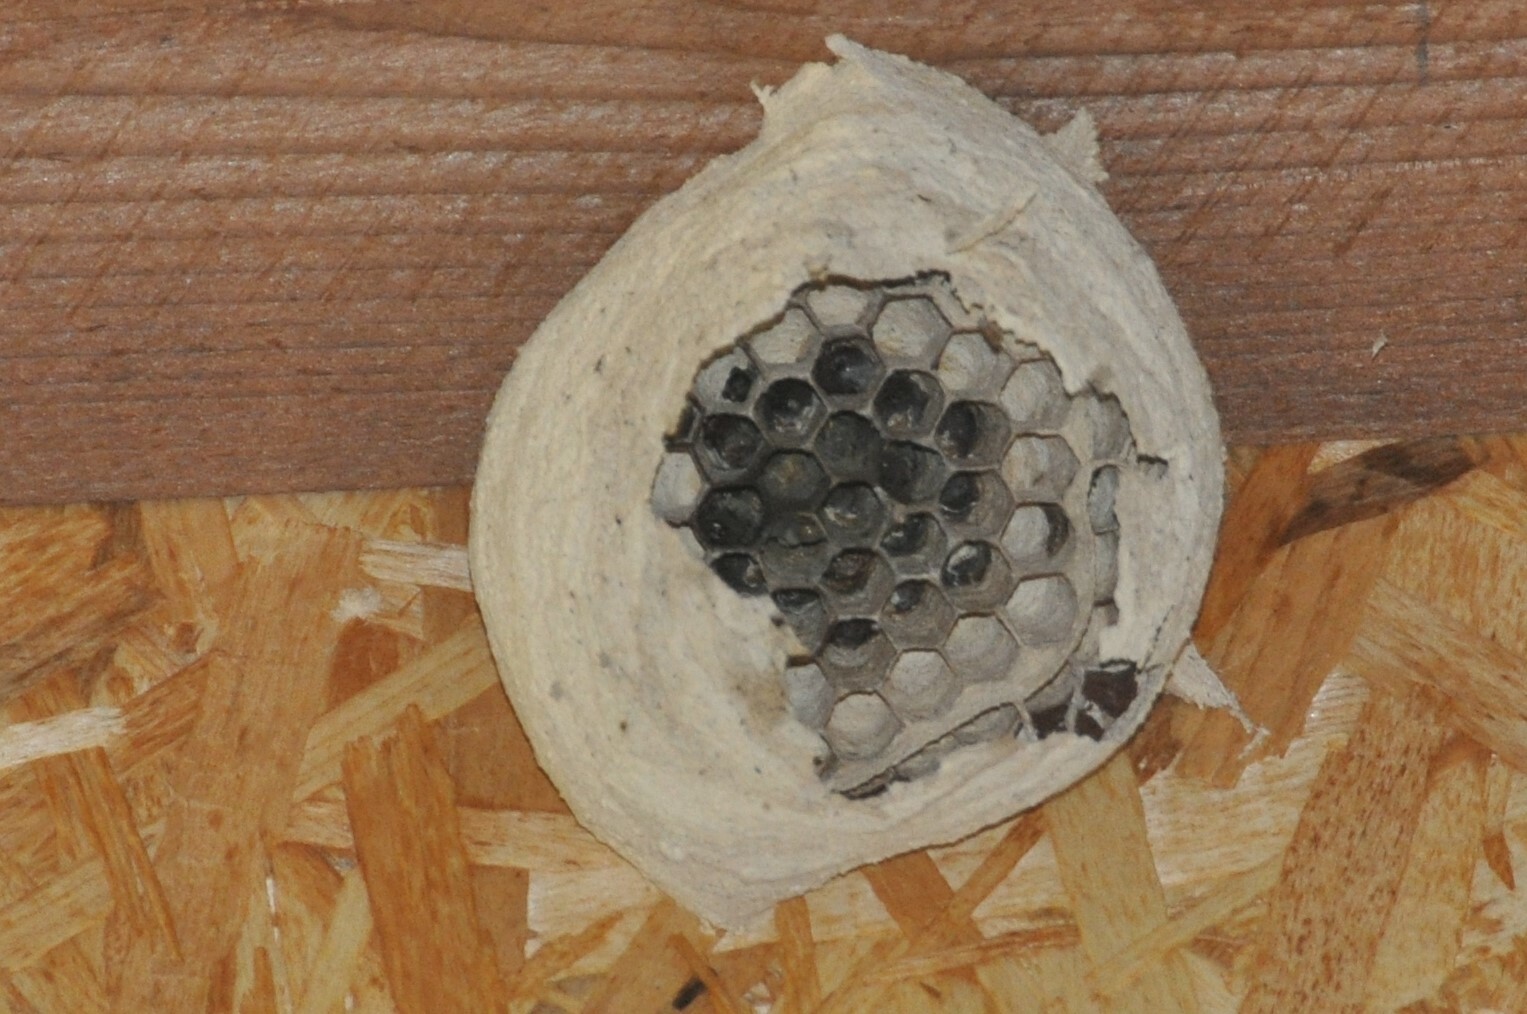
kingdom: Animalia
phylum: Arthropoda
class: Insecta
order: Hymenoptera
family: Vespidae
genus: Vespa
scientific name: Vespa crabro
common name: Hornet
